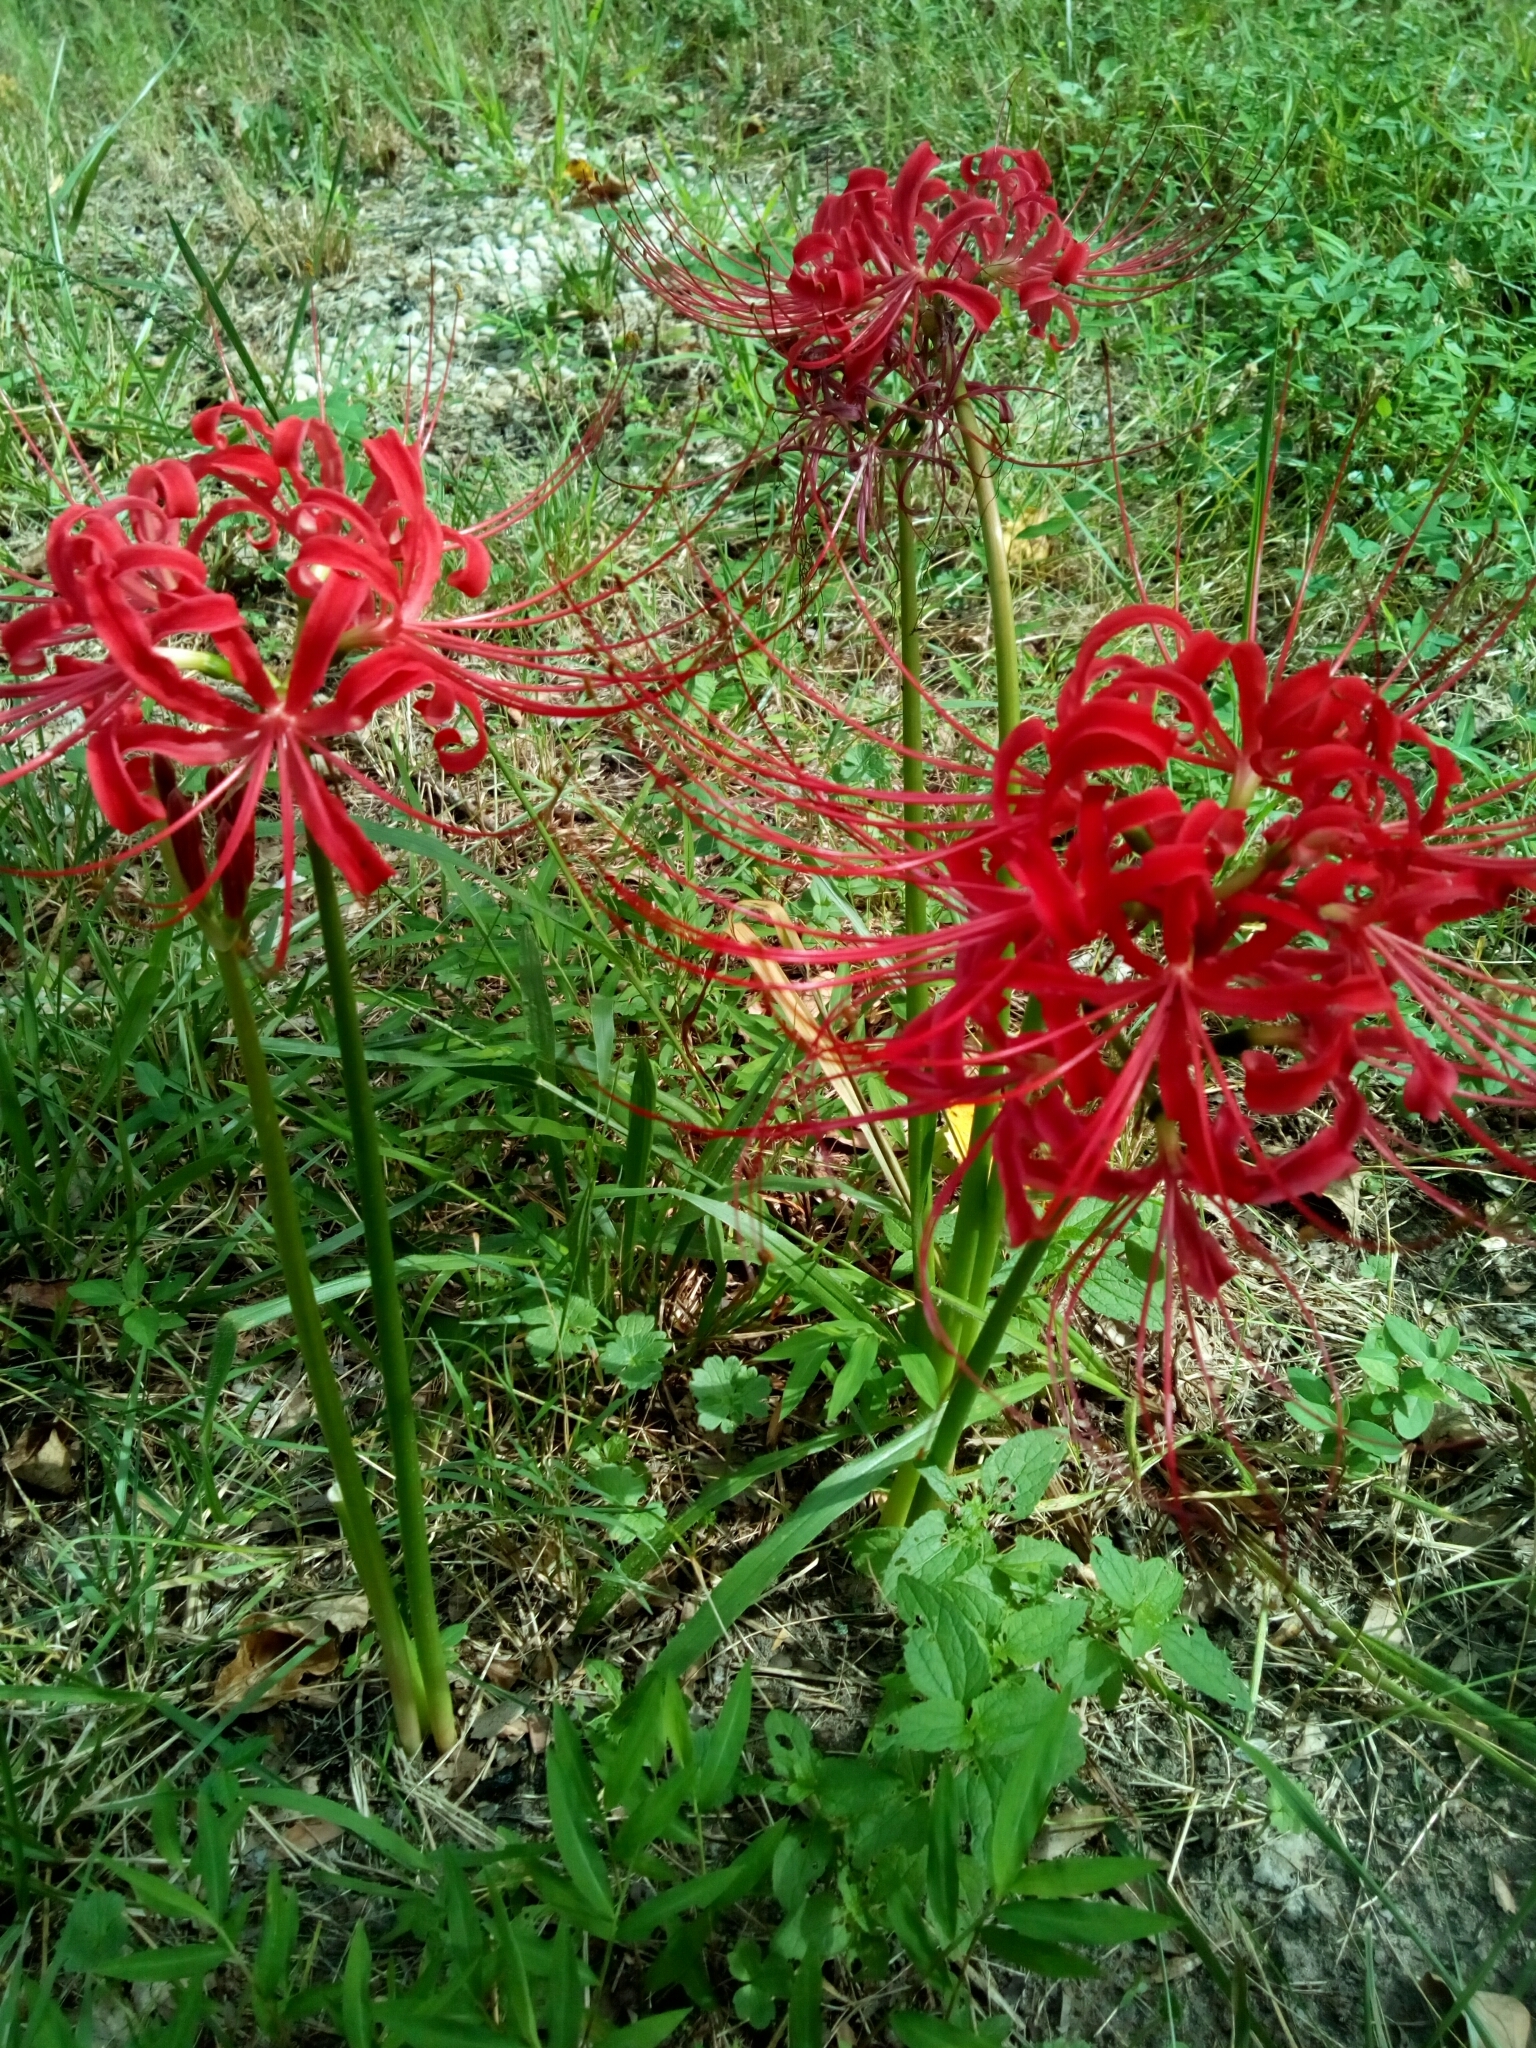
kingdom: Plantae
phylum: Tracheophyta
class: Liliopsida
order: Asparagales
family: Amaryllidaceae
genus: Lycoris
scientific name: Lycoris radiata
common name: Red spider lily
